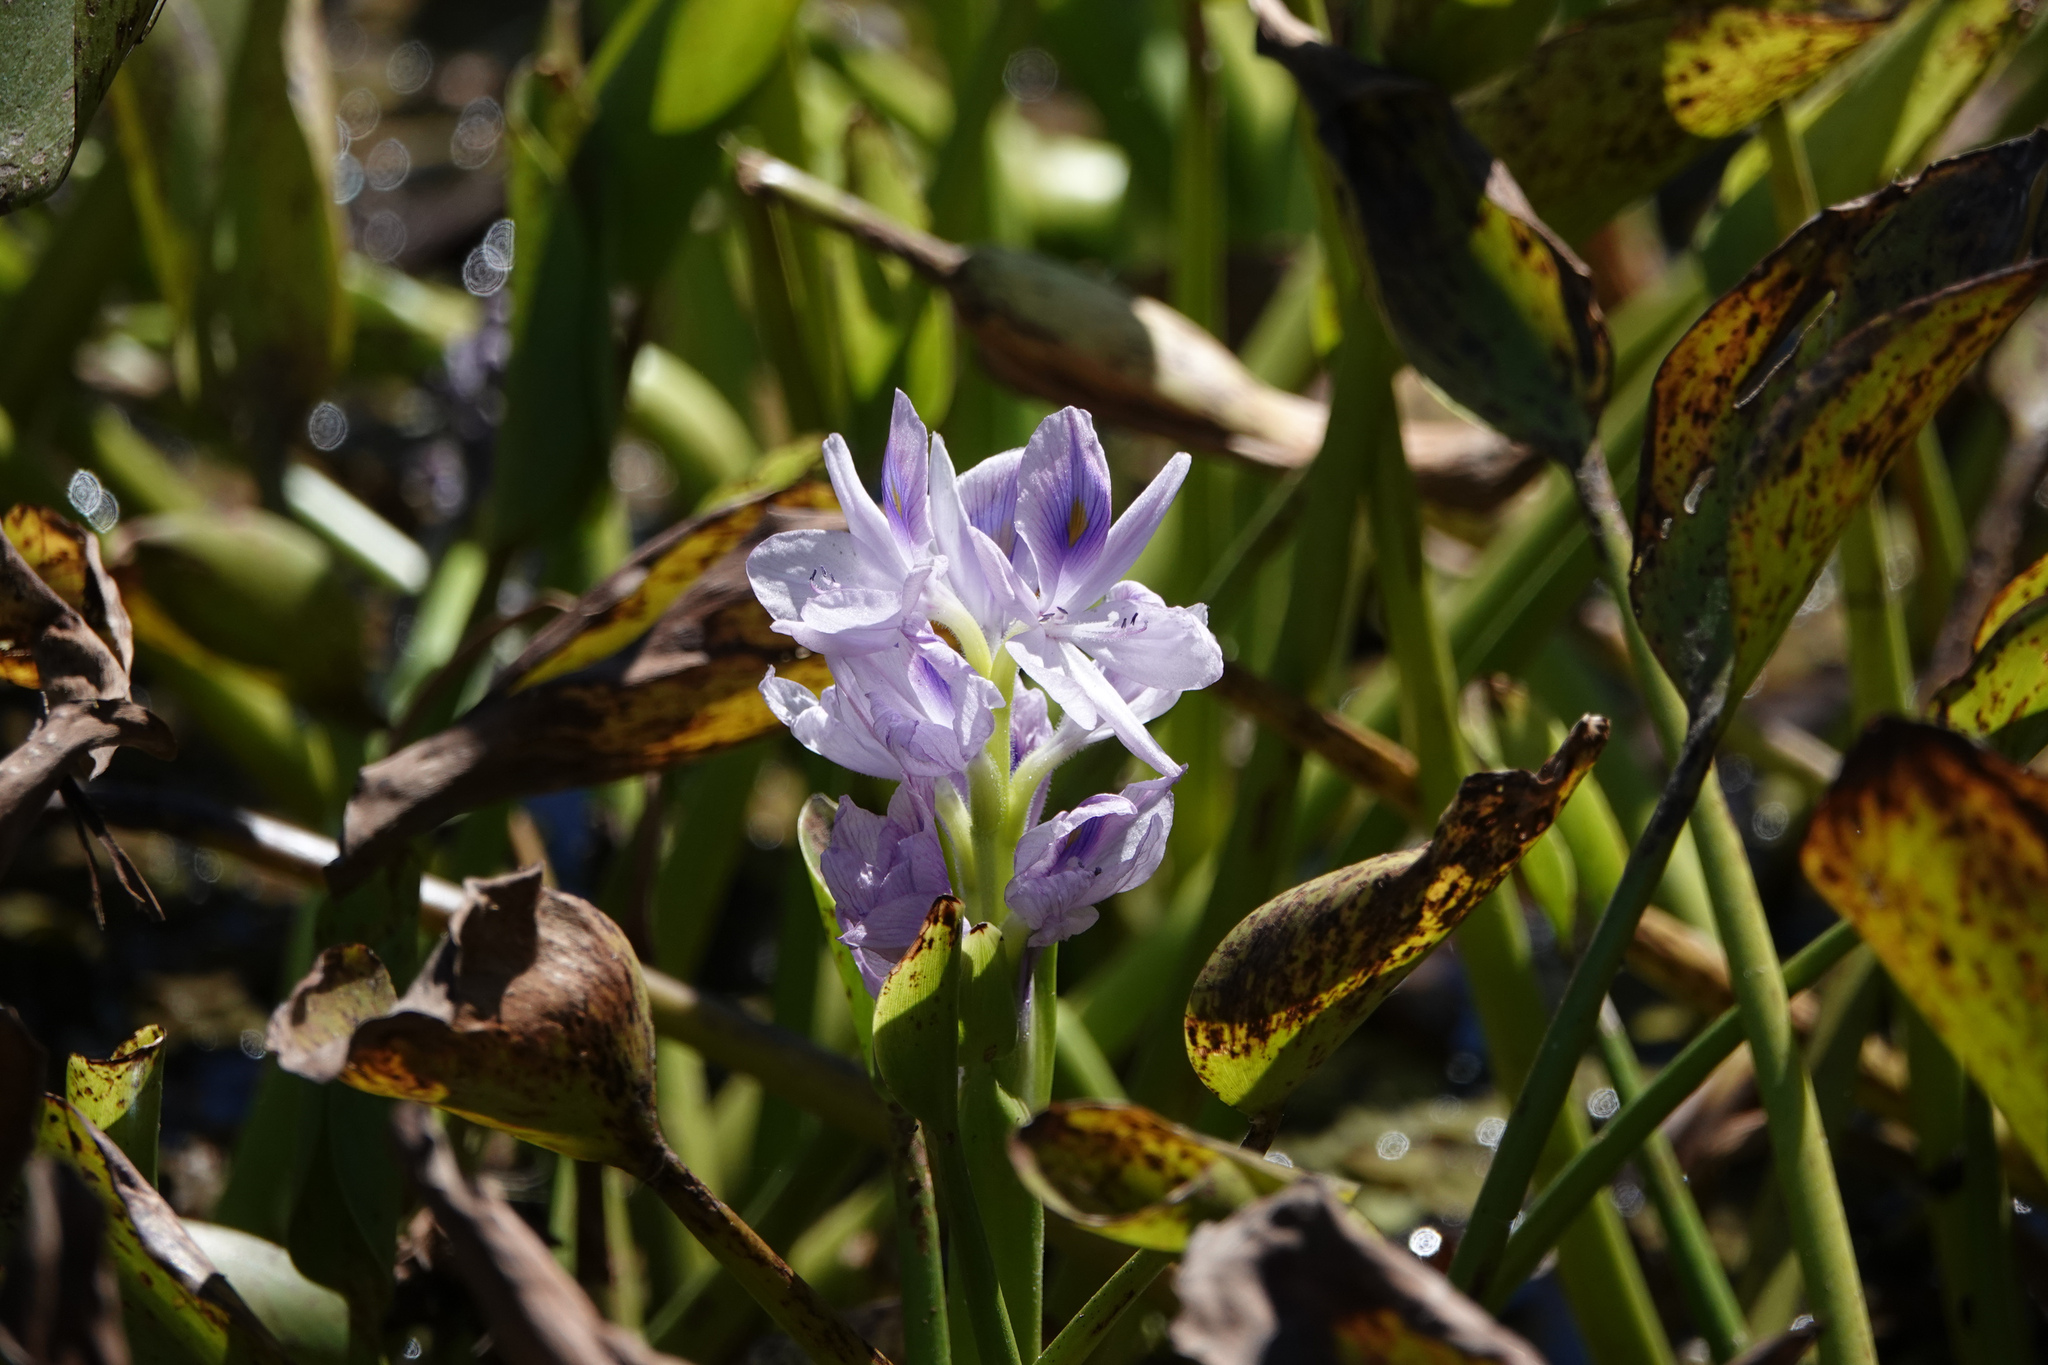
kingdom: Plantae
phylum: Tracheophyta
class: Liliopsida
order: Commelinales
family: Pontederiaceae
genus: Pontederia
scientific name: Pontederia crassipes
